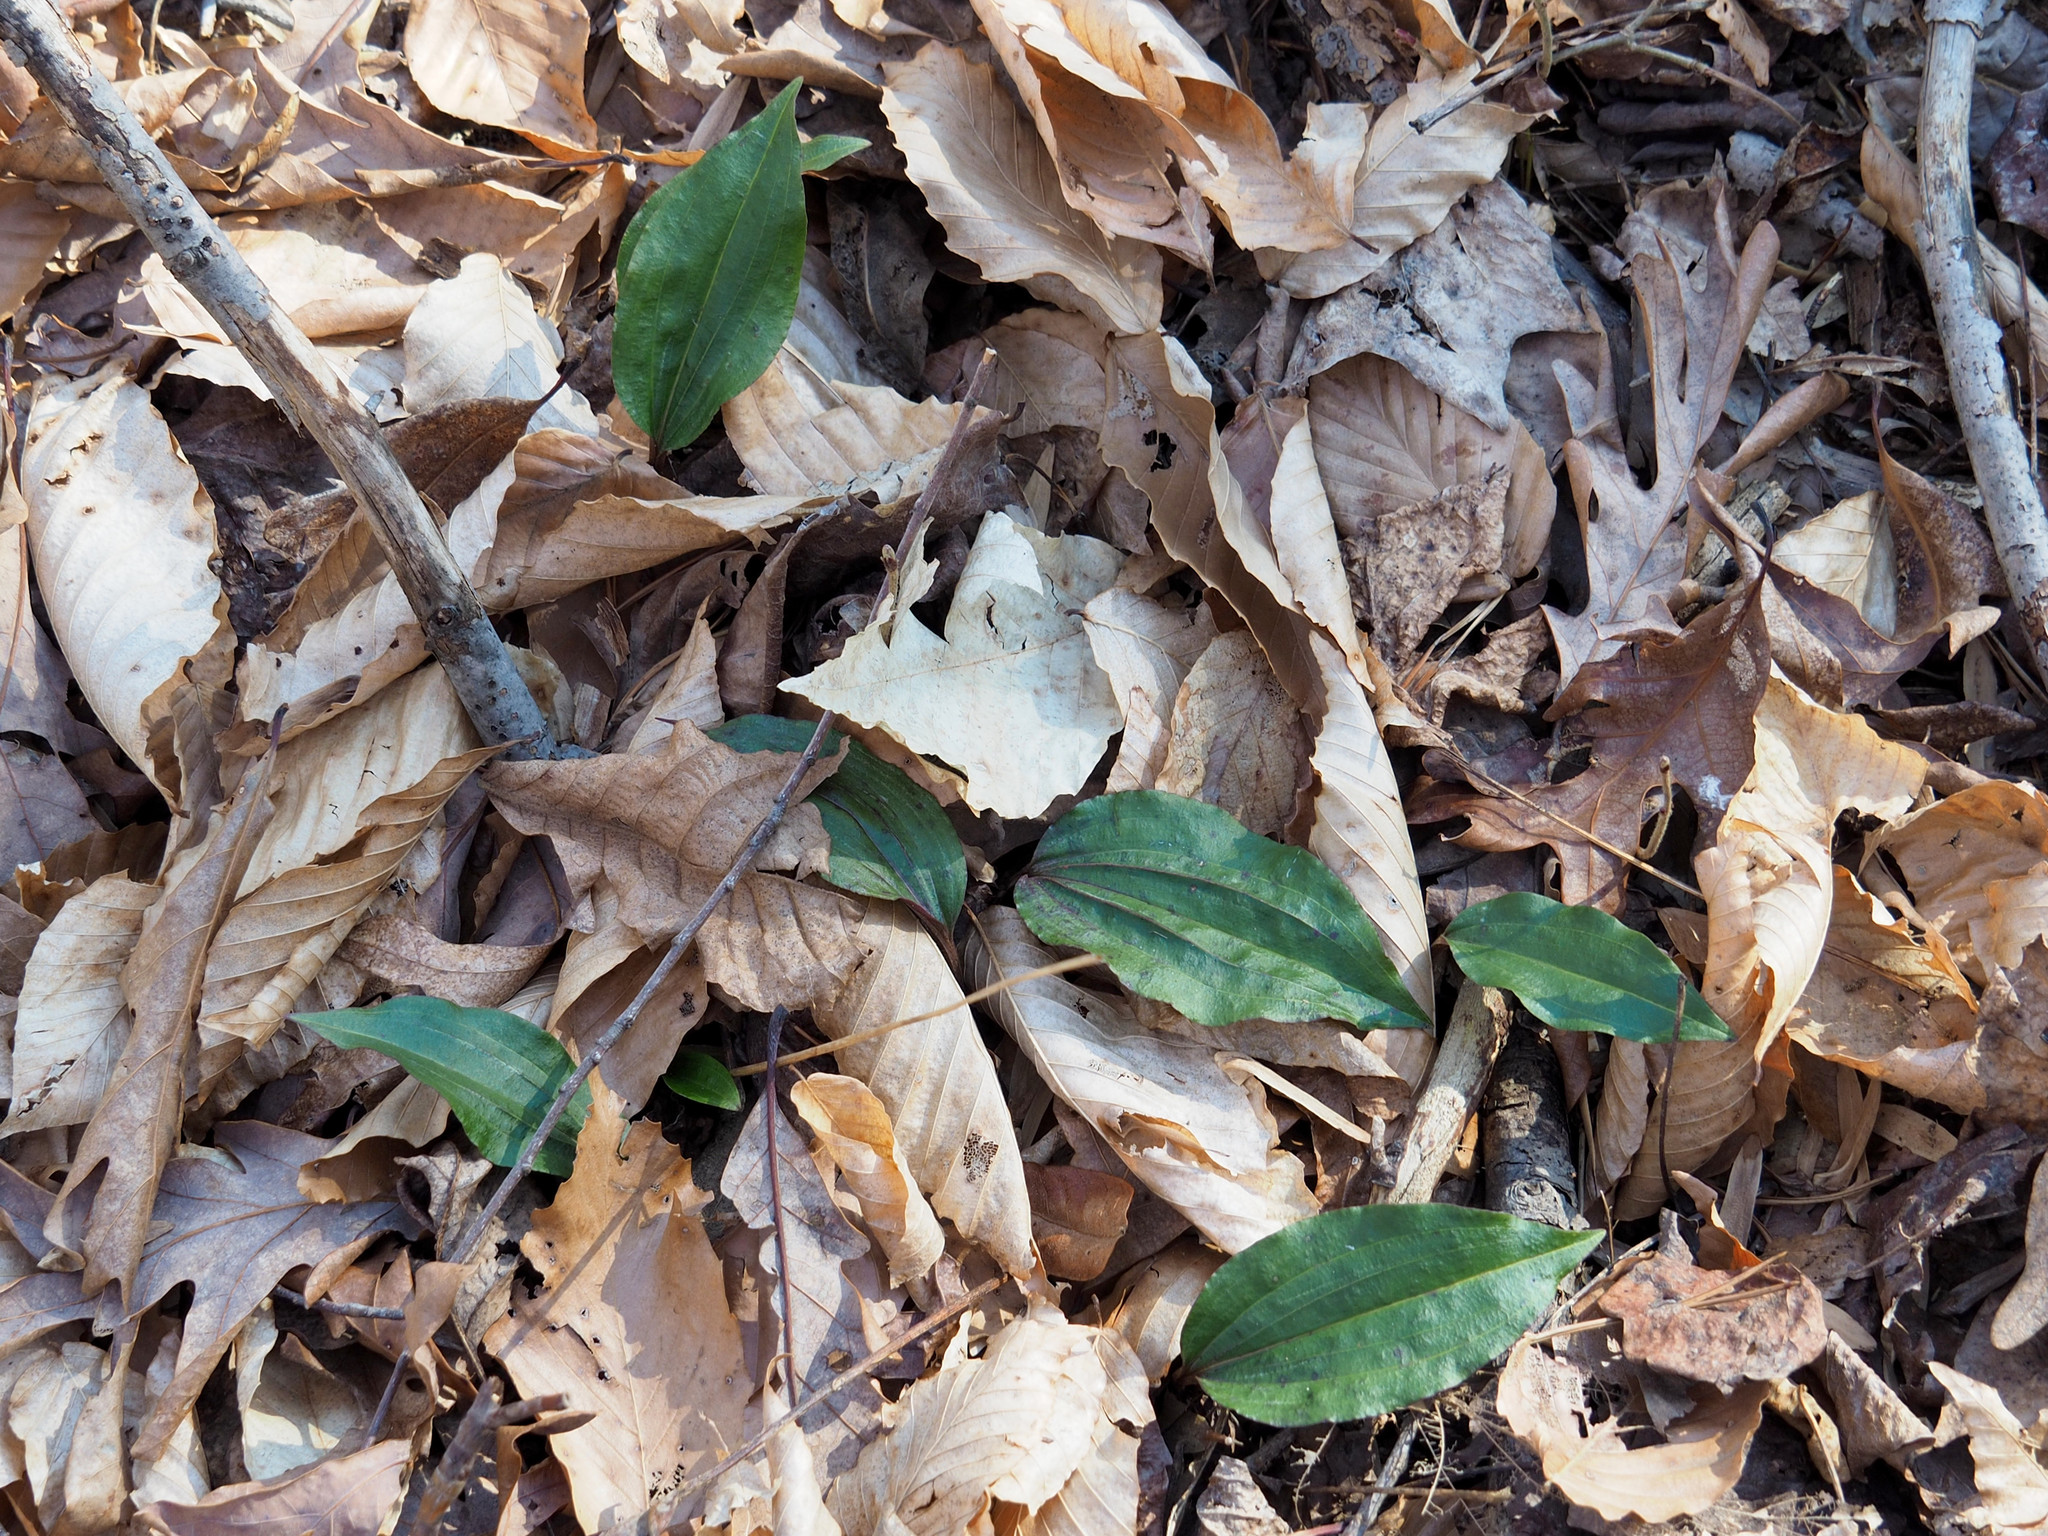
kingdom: Plantae
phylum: Tracheophyta
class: Liliopsida
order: Asparagales
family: Orchidaceae
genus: Tipularia
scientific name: Tipularia discolor
